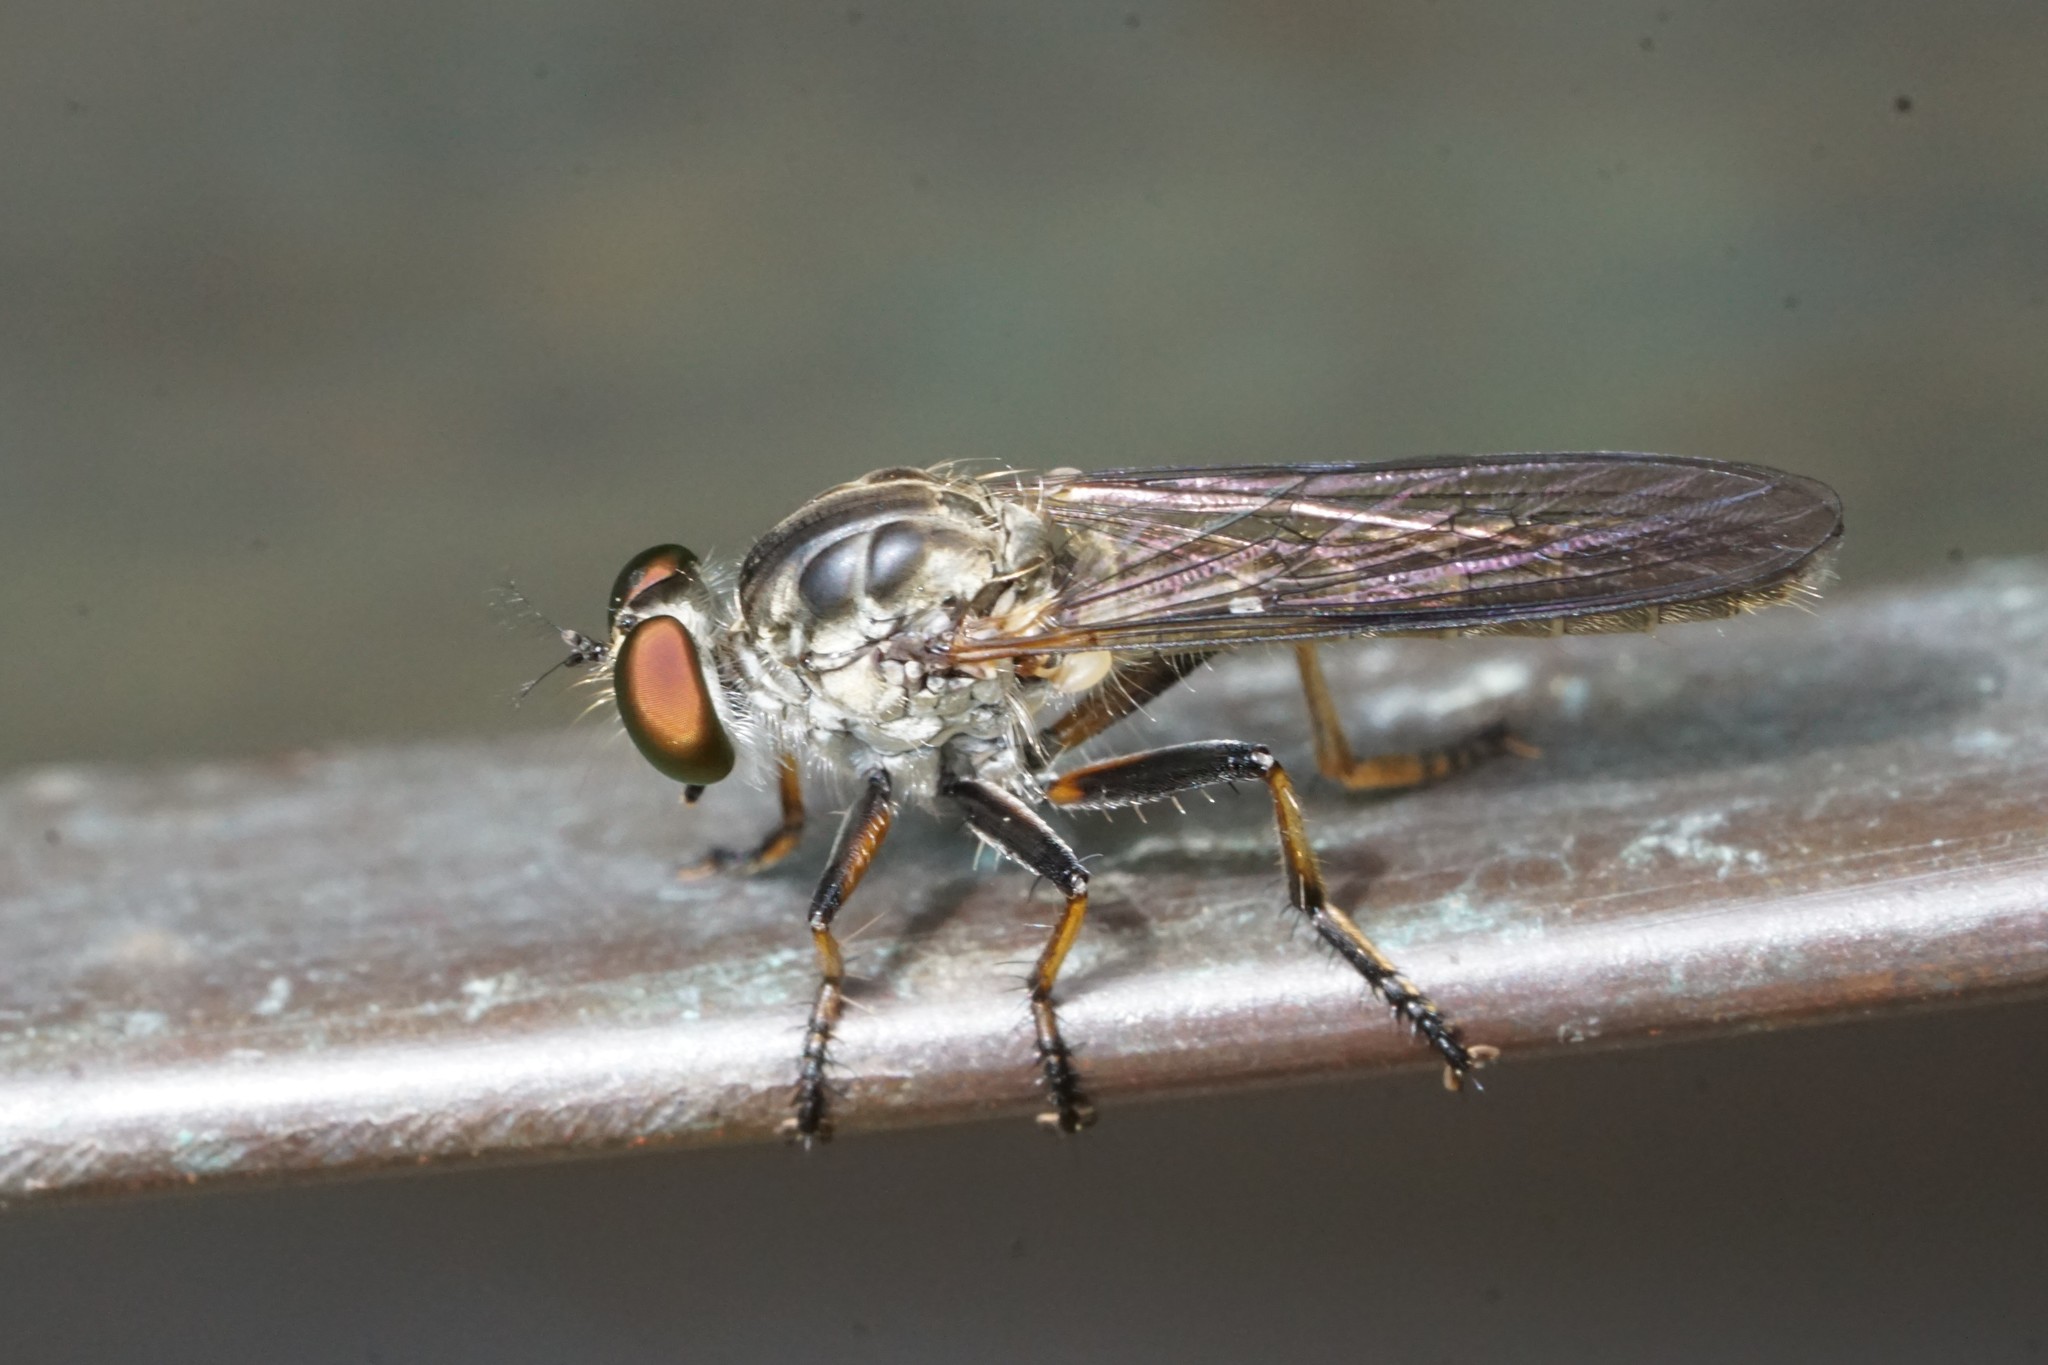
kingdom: Animalia
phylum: Arthropoda
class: Insecta
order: Diptera
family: Asilidae
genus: Ommatius
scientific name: Ommatius tibialis
